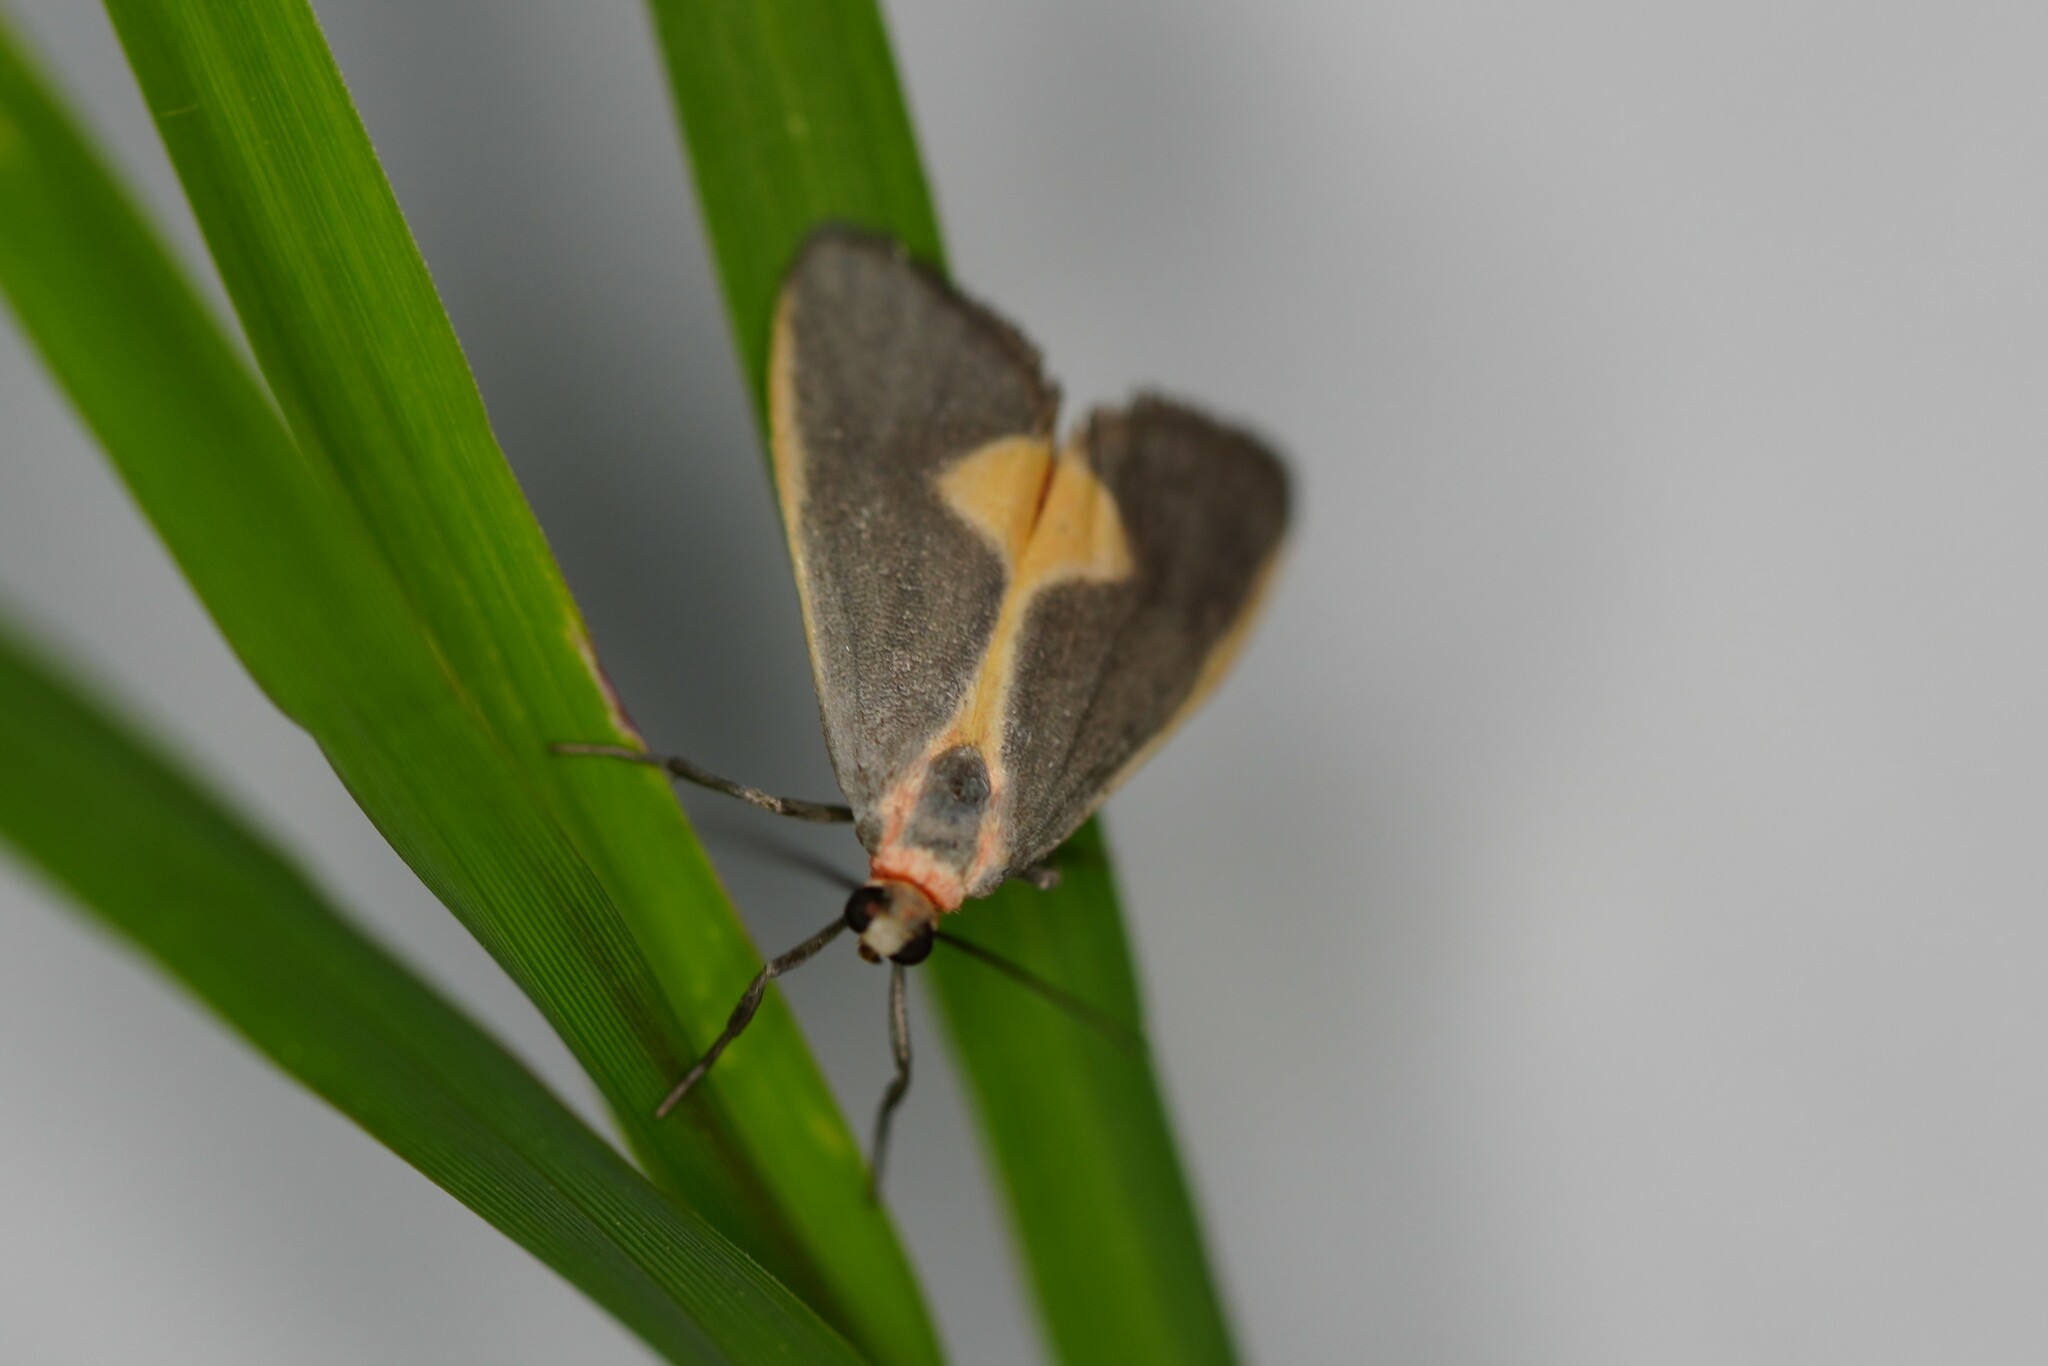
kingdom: Animalia
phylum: Arthropoda
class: Insecta
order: Lepidoptera
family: Erebidae
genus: Cisthene
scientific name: Cisthene plumbea
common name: Lead colored lichen moth
